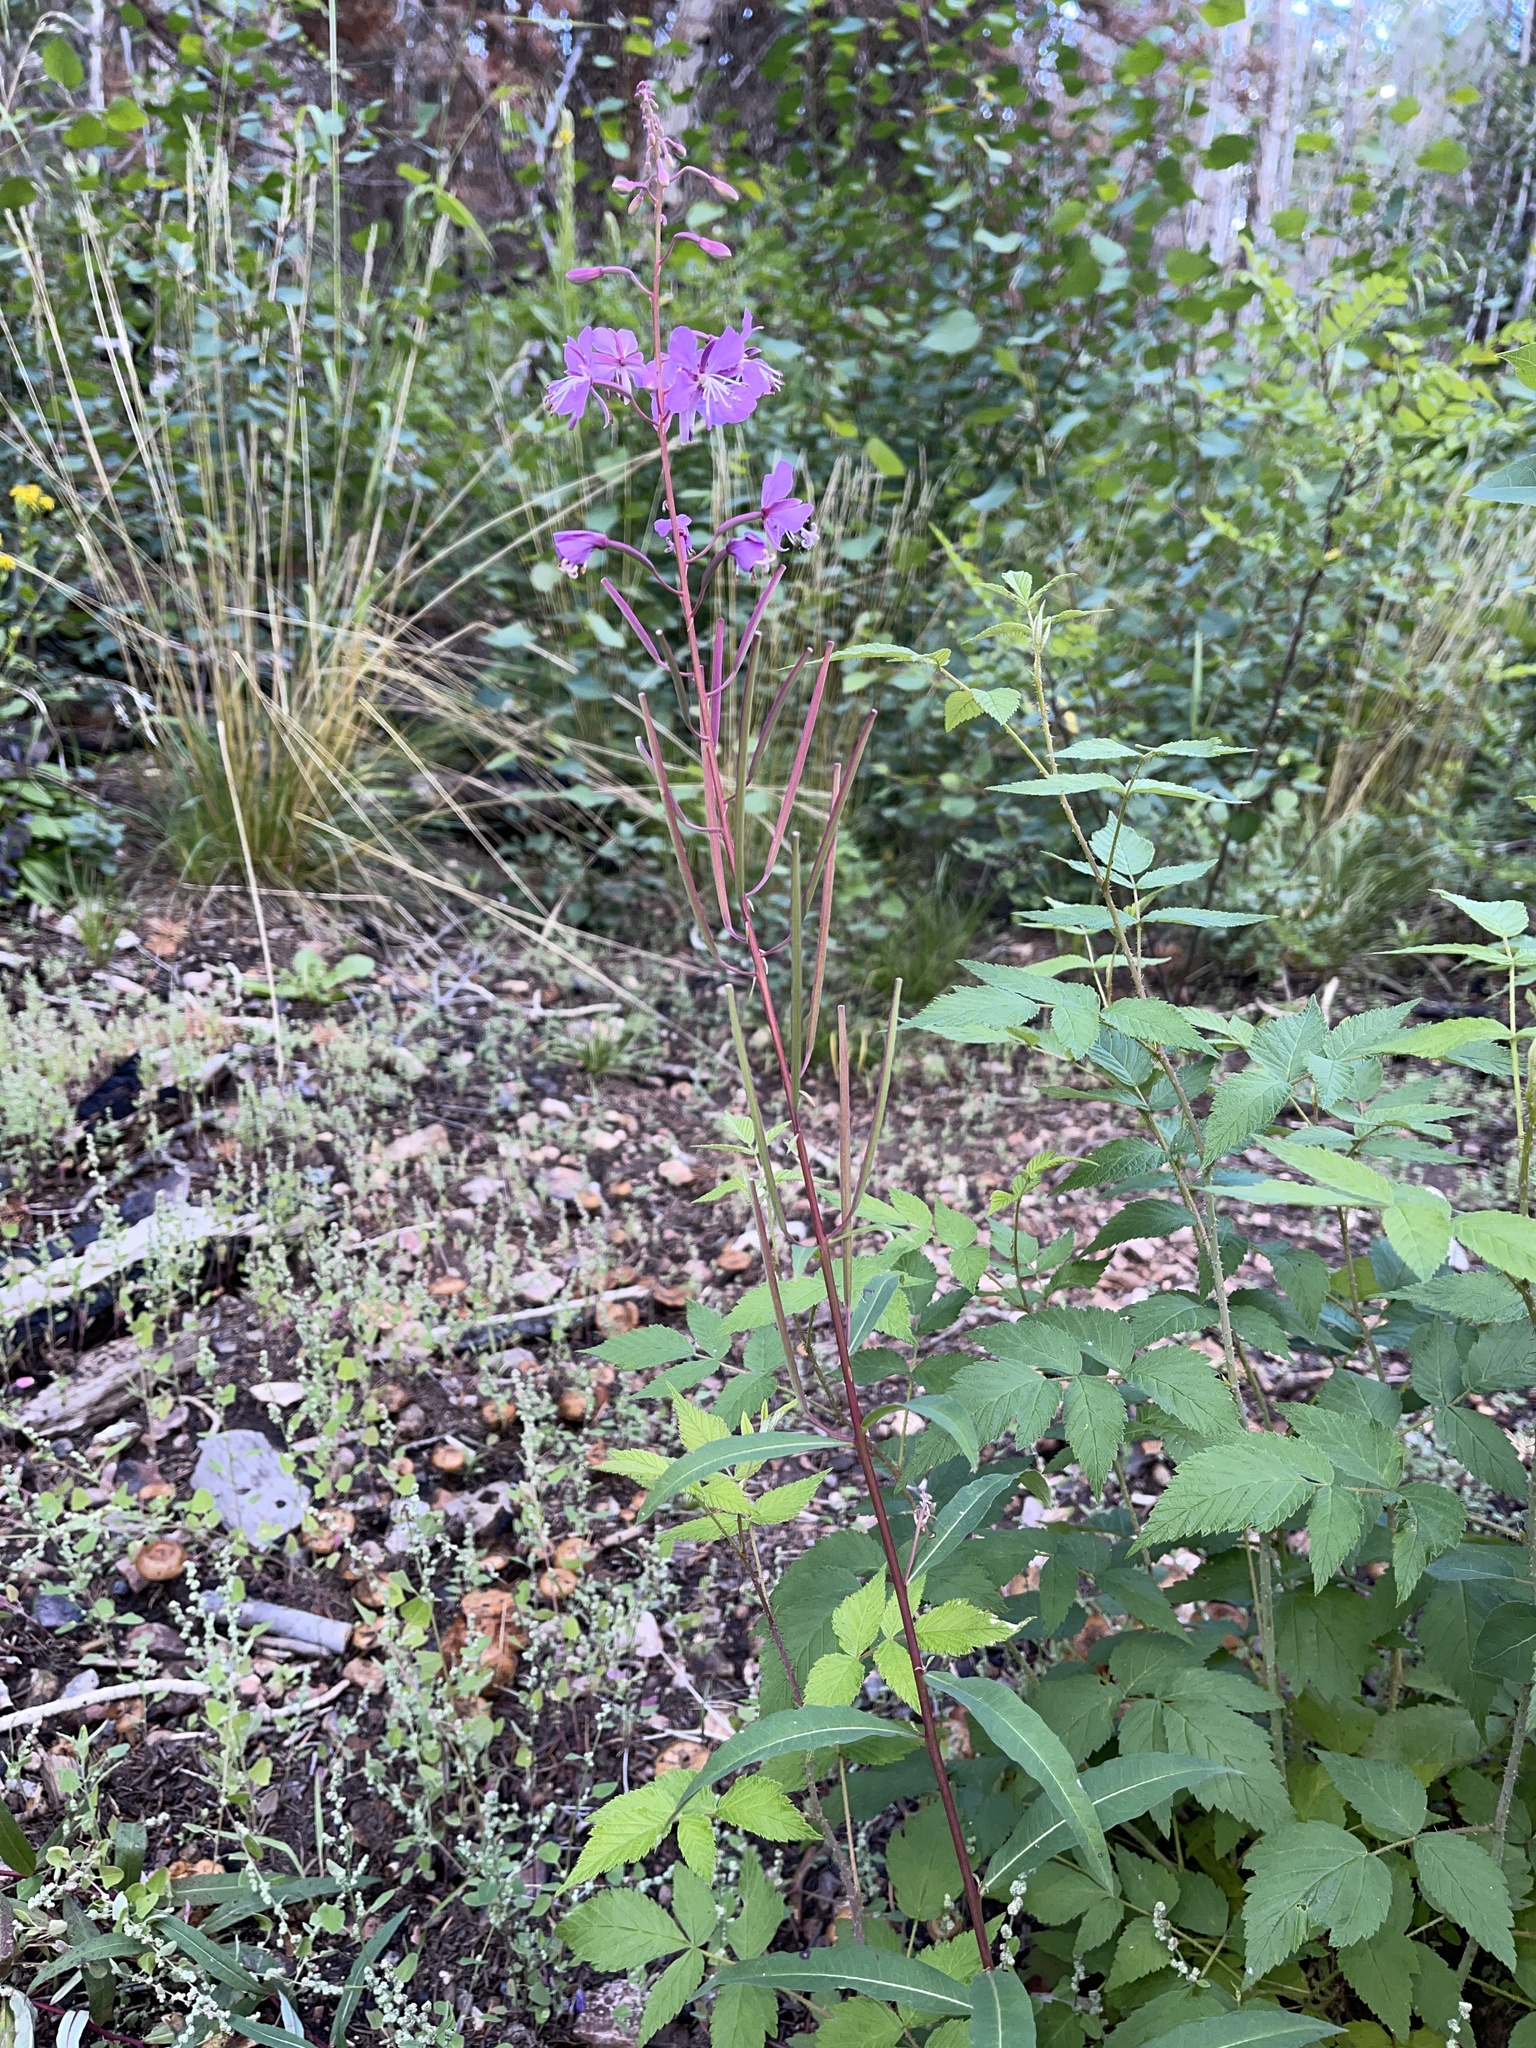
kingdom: Plantae
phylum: Tracheophyta
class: Magnoliopsida
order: Myrtales
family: Onagraceae
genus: Chamaenerion
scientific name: Chamaenerion angustifolium
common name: Fireweed
